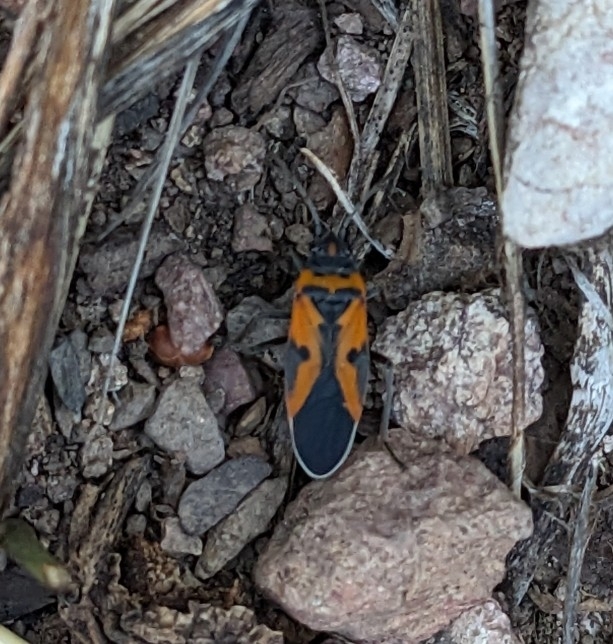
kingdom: Animalia
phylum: Arthropoda
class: Insecta
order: Hemiptera
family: Lygaeidae
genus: Lygaeus
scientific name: Lygaeus reclivatus
